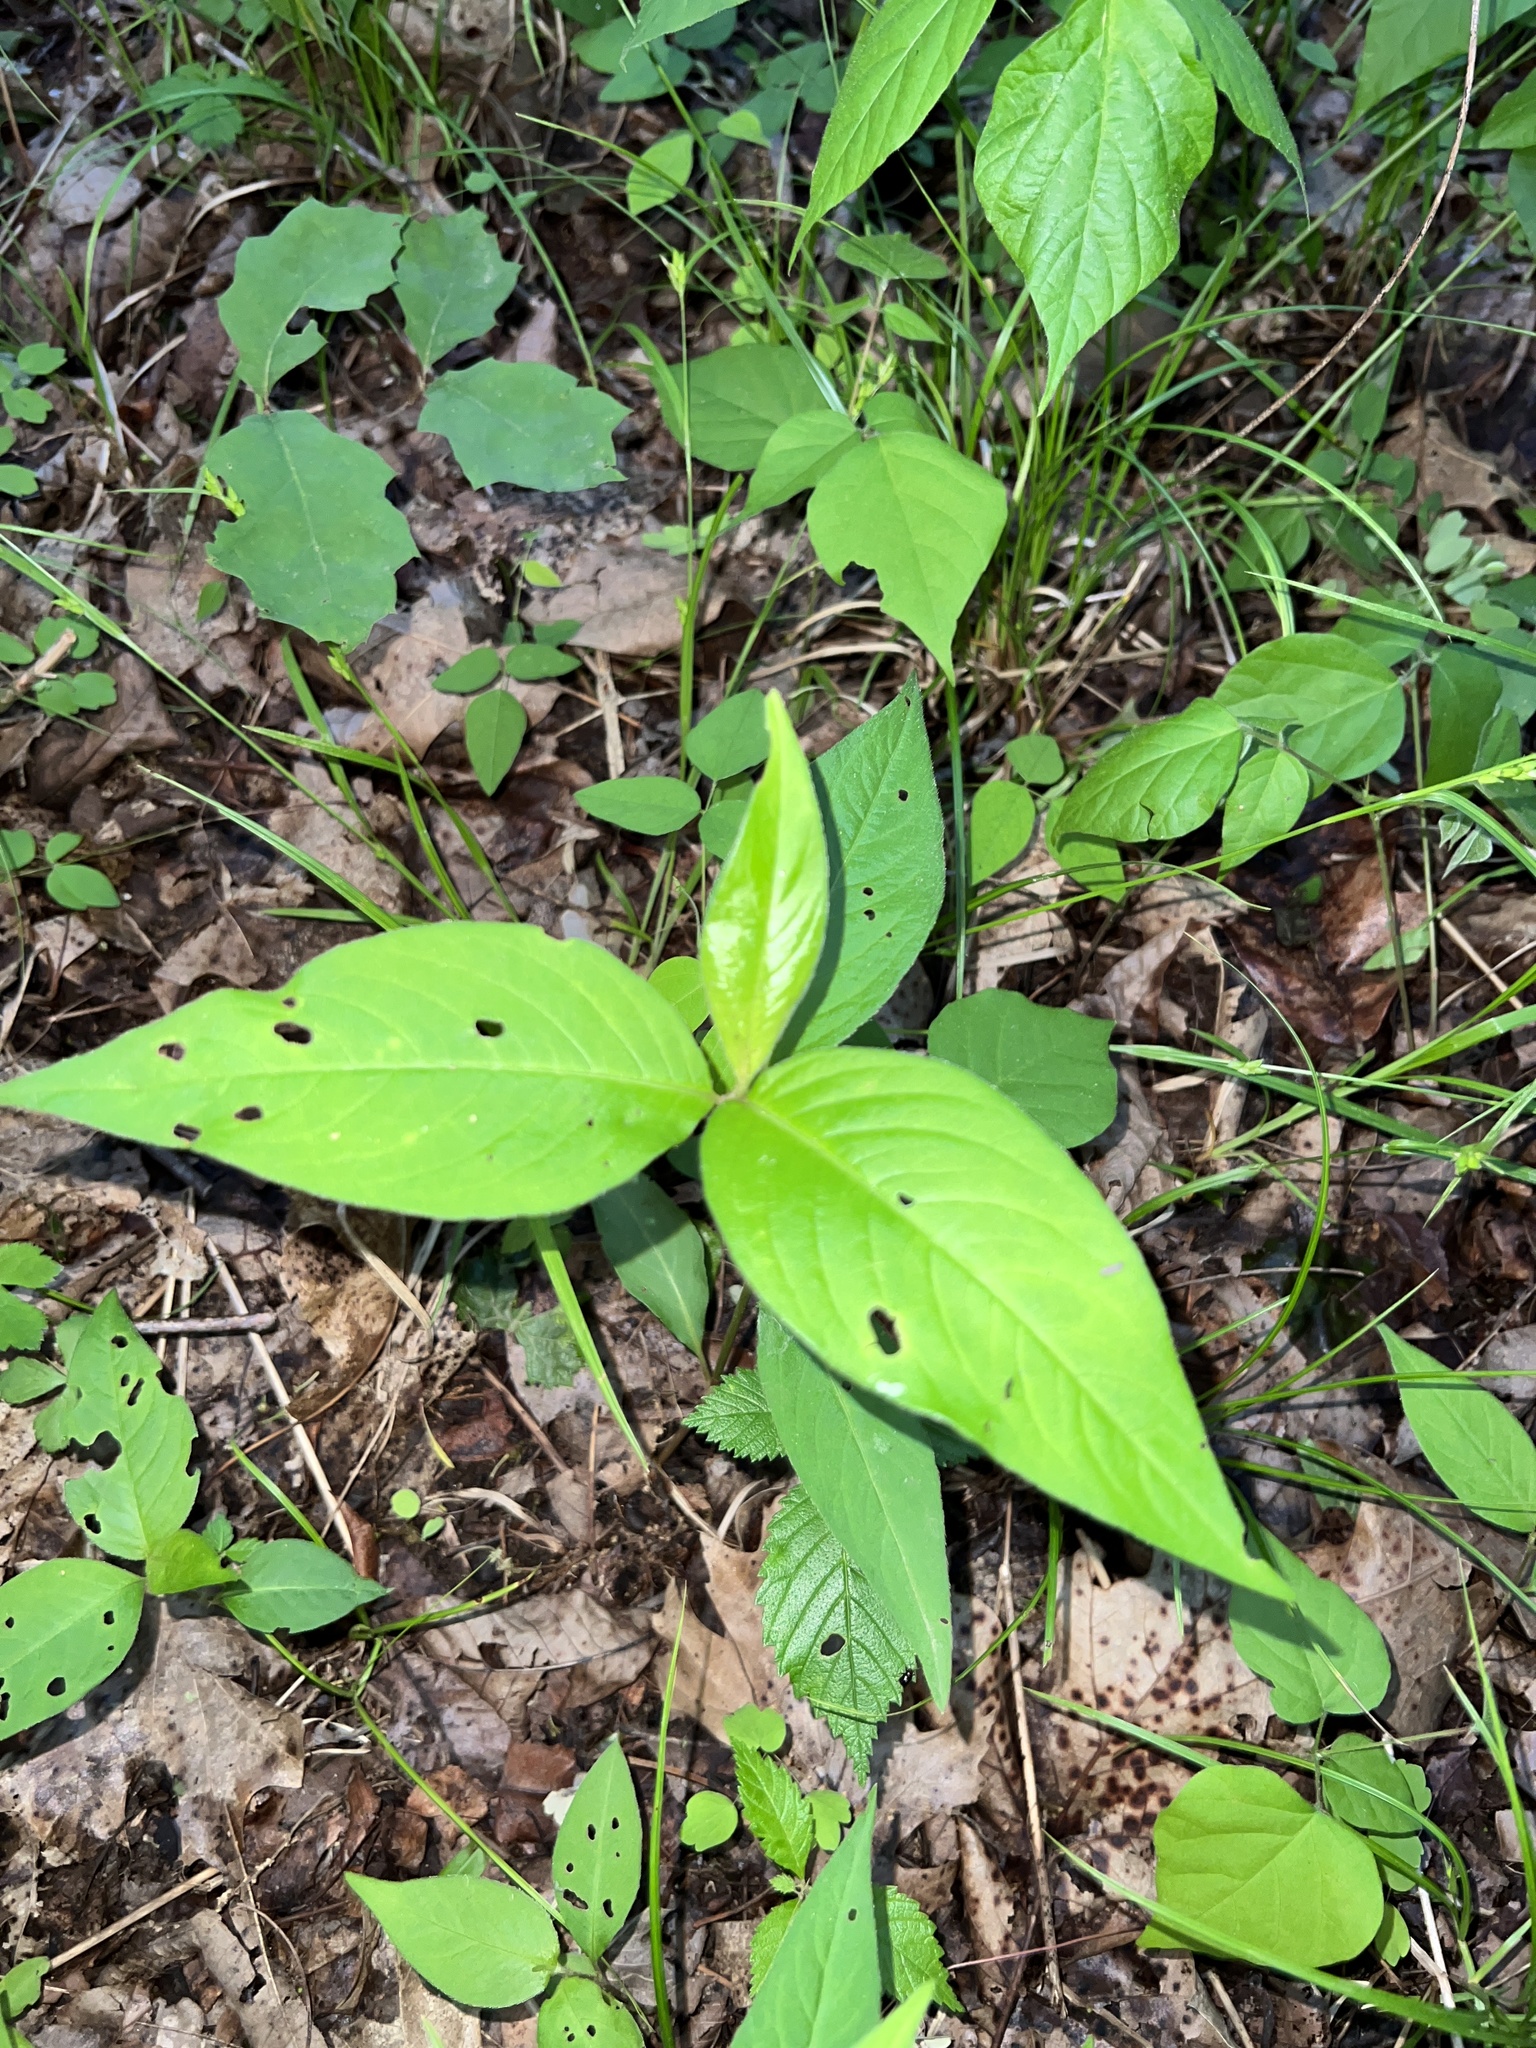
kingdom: Plantae
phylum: Tracheophyta
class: Magnoliopsida
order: Caryophyllales
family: Polygonaceae
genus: Persicaria
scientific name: Persicaria virginiana
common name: Jumpseed
